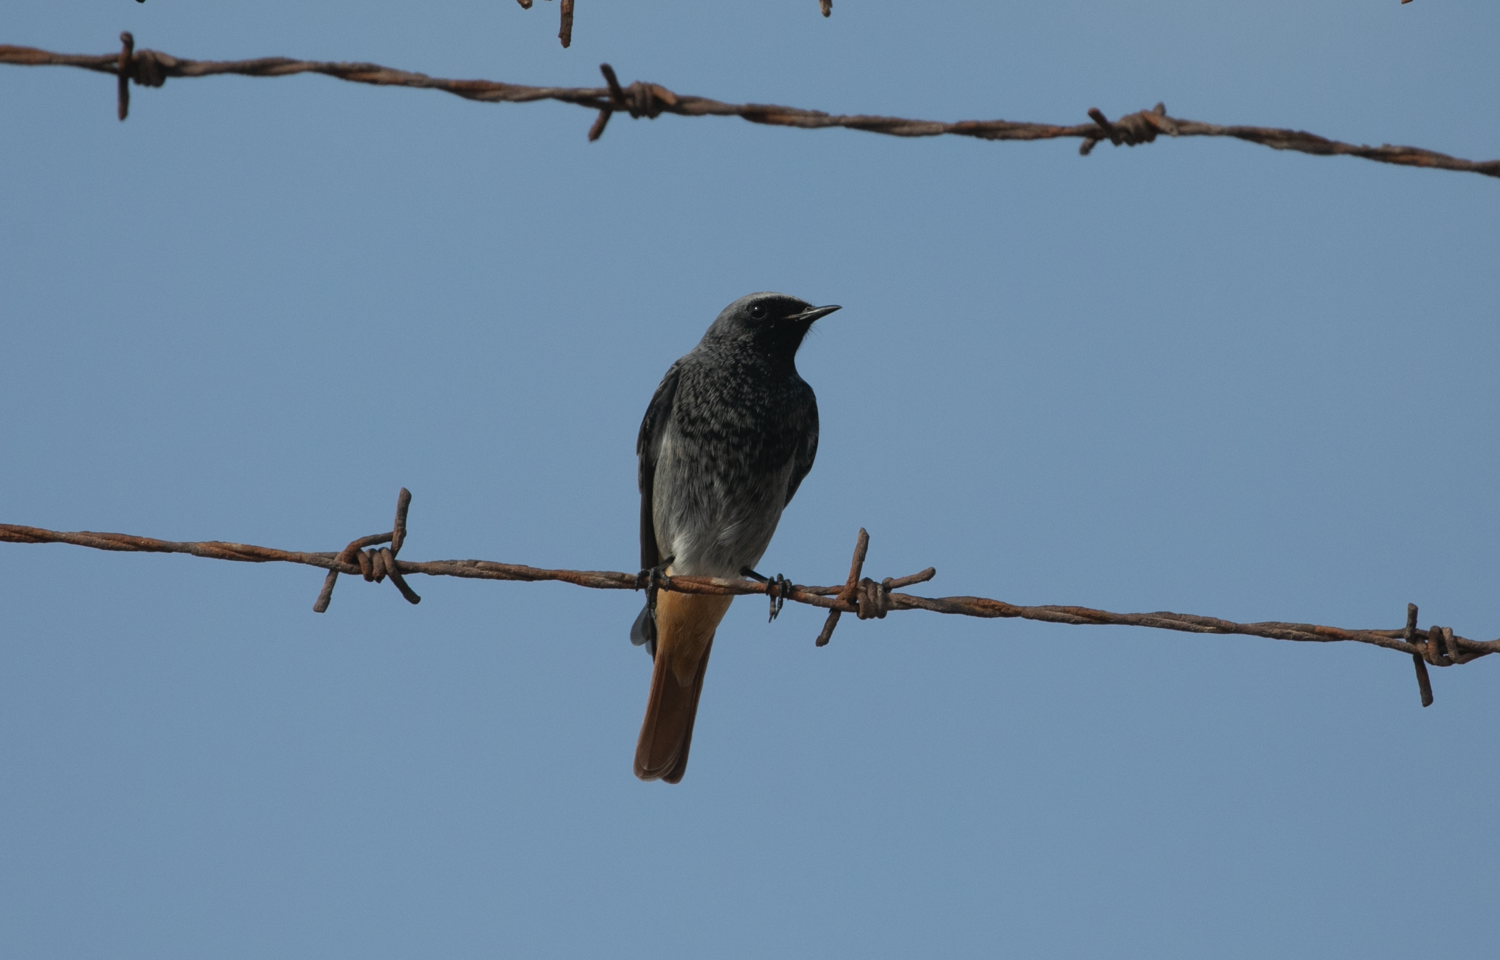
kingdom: Animalia
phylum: Chordata
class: Aves
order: Passeriformes
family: Muscicapidae
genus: Phoenicurus
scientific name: Phoenicurus ochruros
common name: Black redstart
